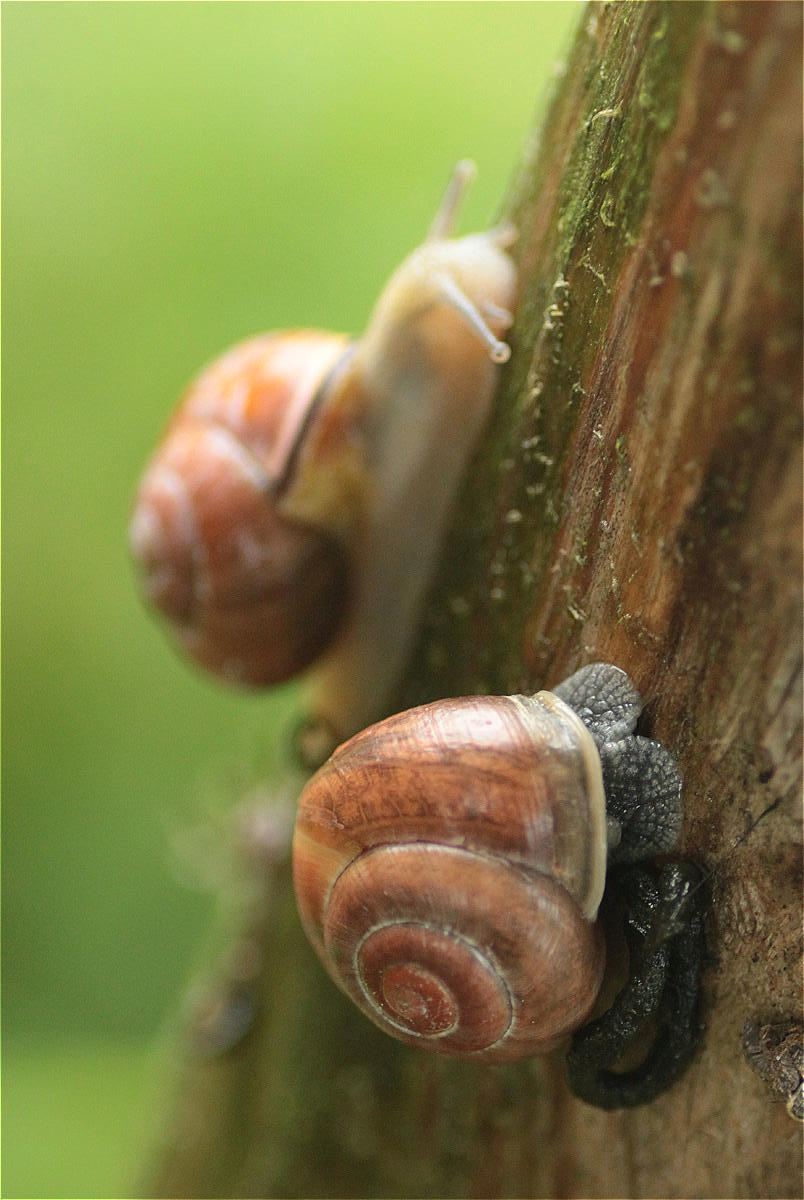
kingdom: Animalia
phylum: Mollusca
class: Gastropoda
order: Stylommatophora
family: Helicidae
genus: Cepaea
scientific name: Cepaea nemoralis
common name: Grovesnail
